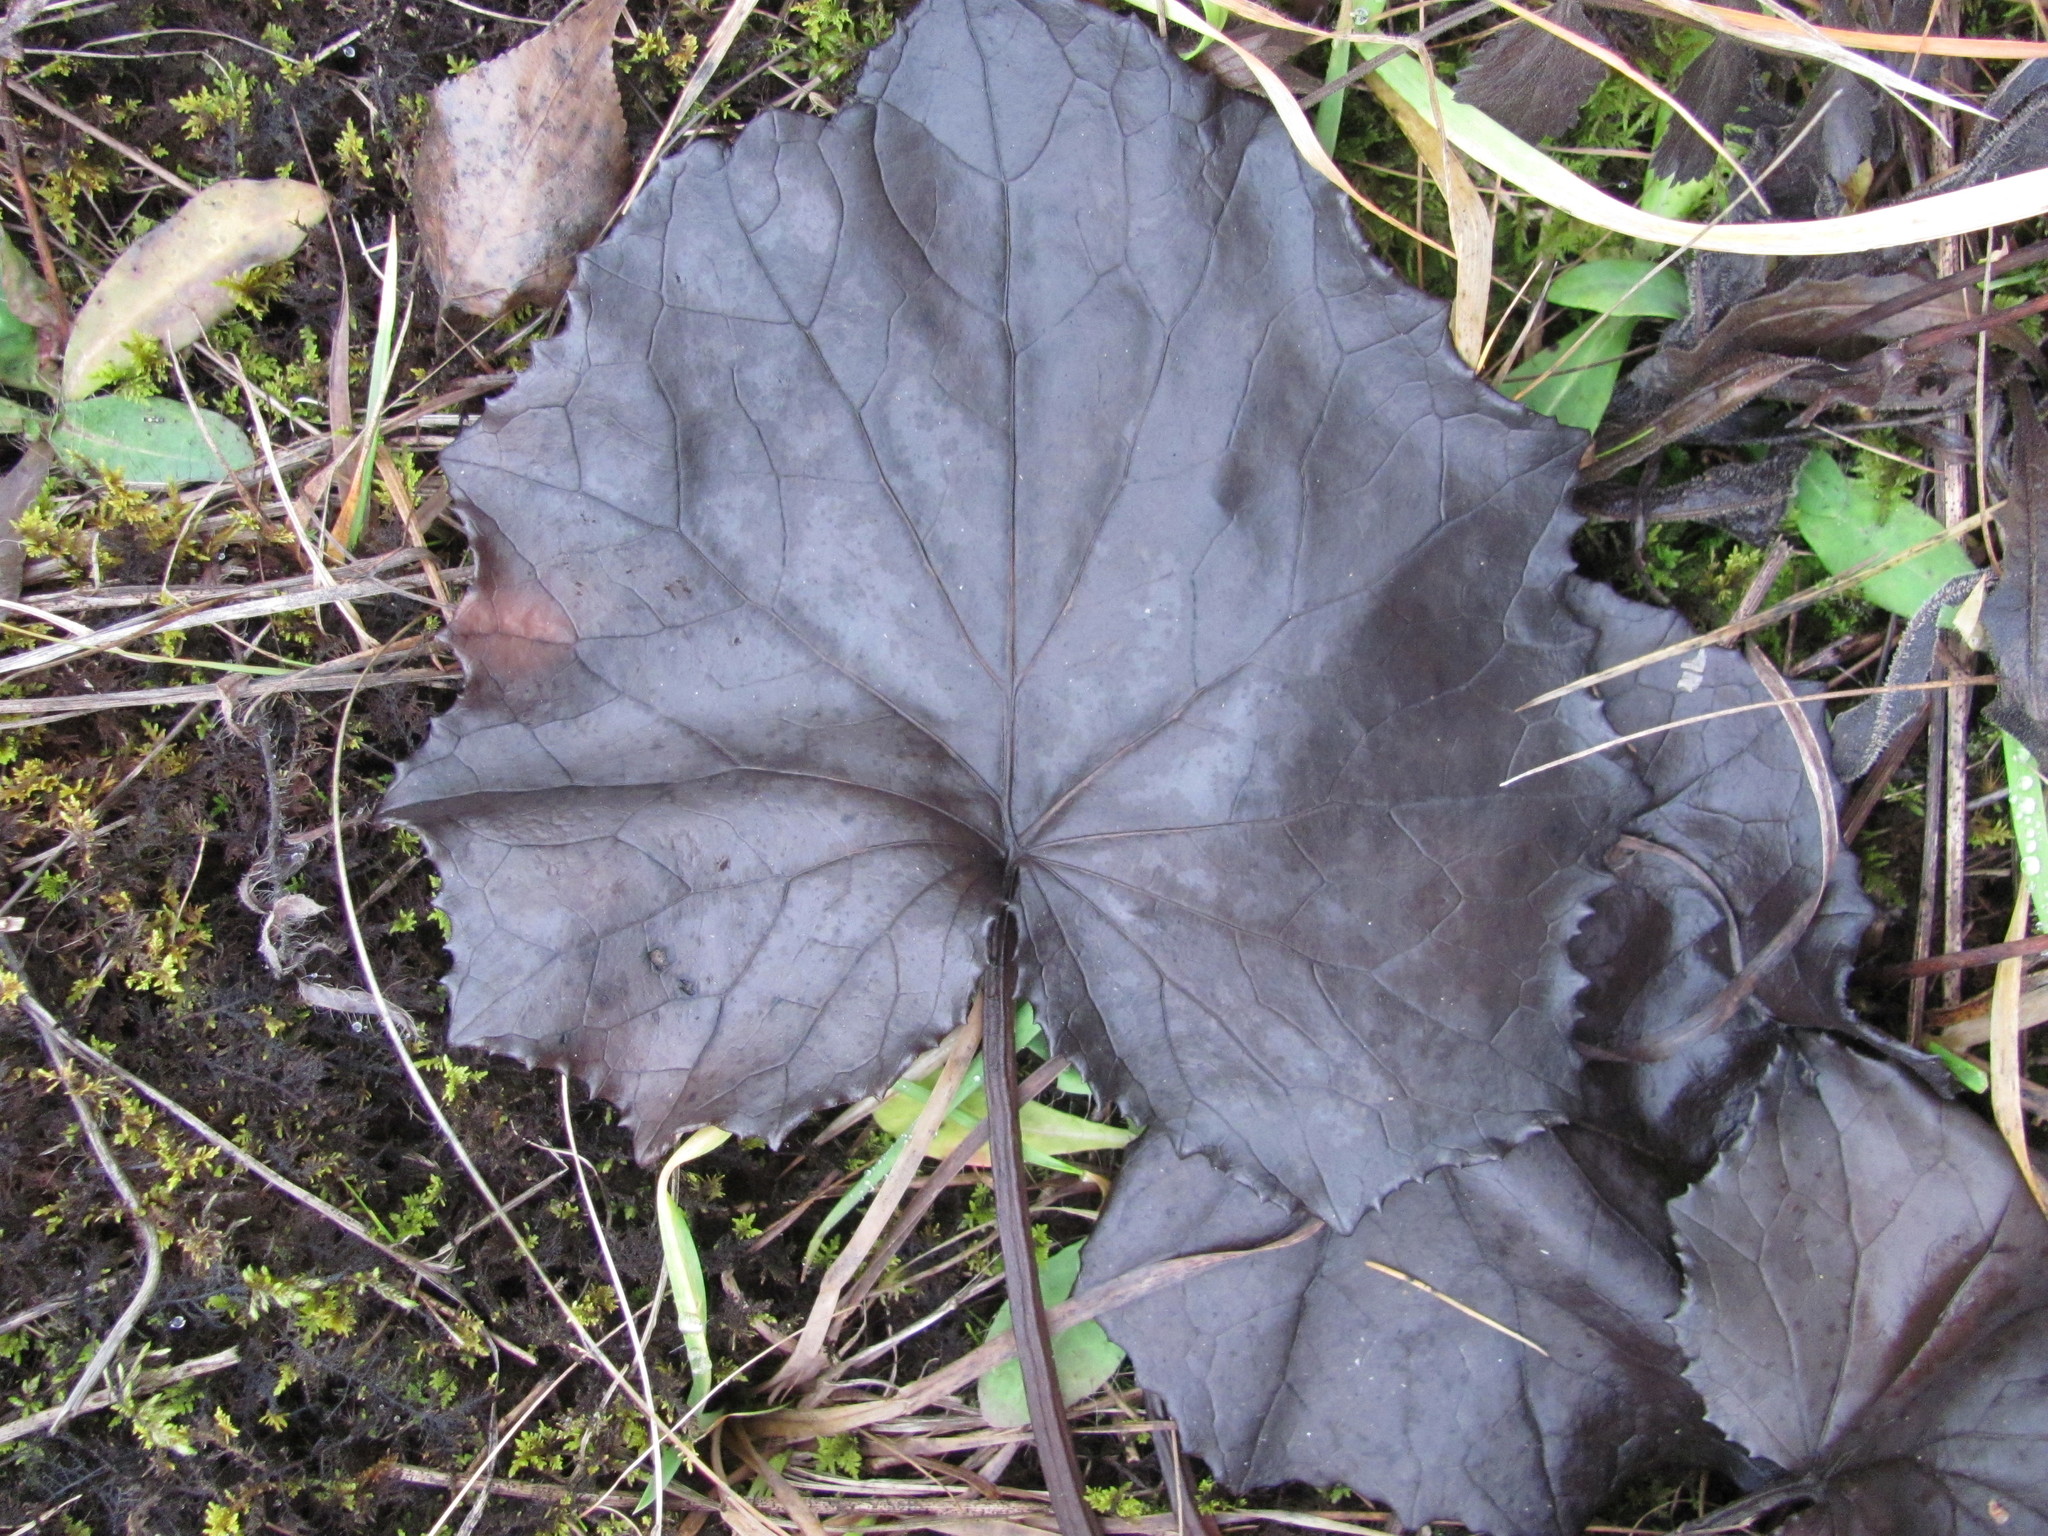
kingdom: Plantae
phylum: Tracheophyta
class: Magnoliopsida
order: Asterales
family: Asteraceae
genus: Tussilago
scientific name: Tussilago farfara
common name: Coltsfoot
